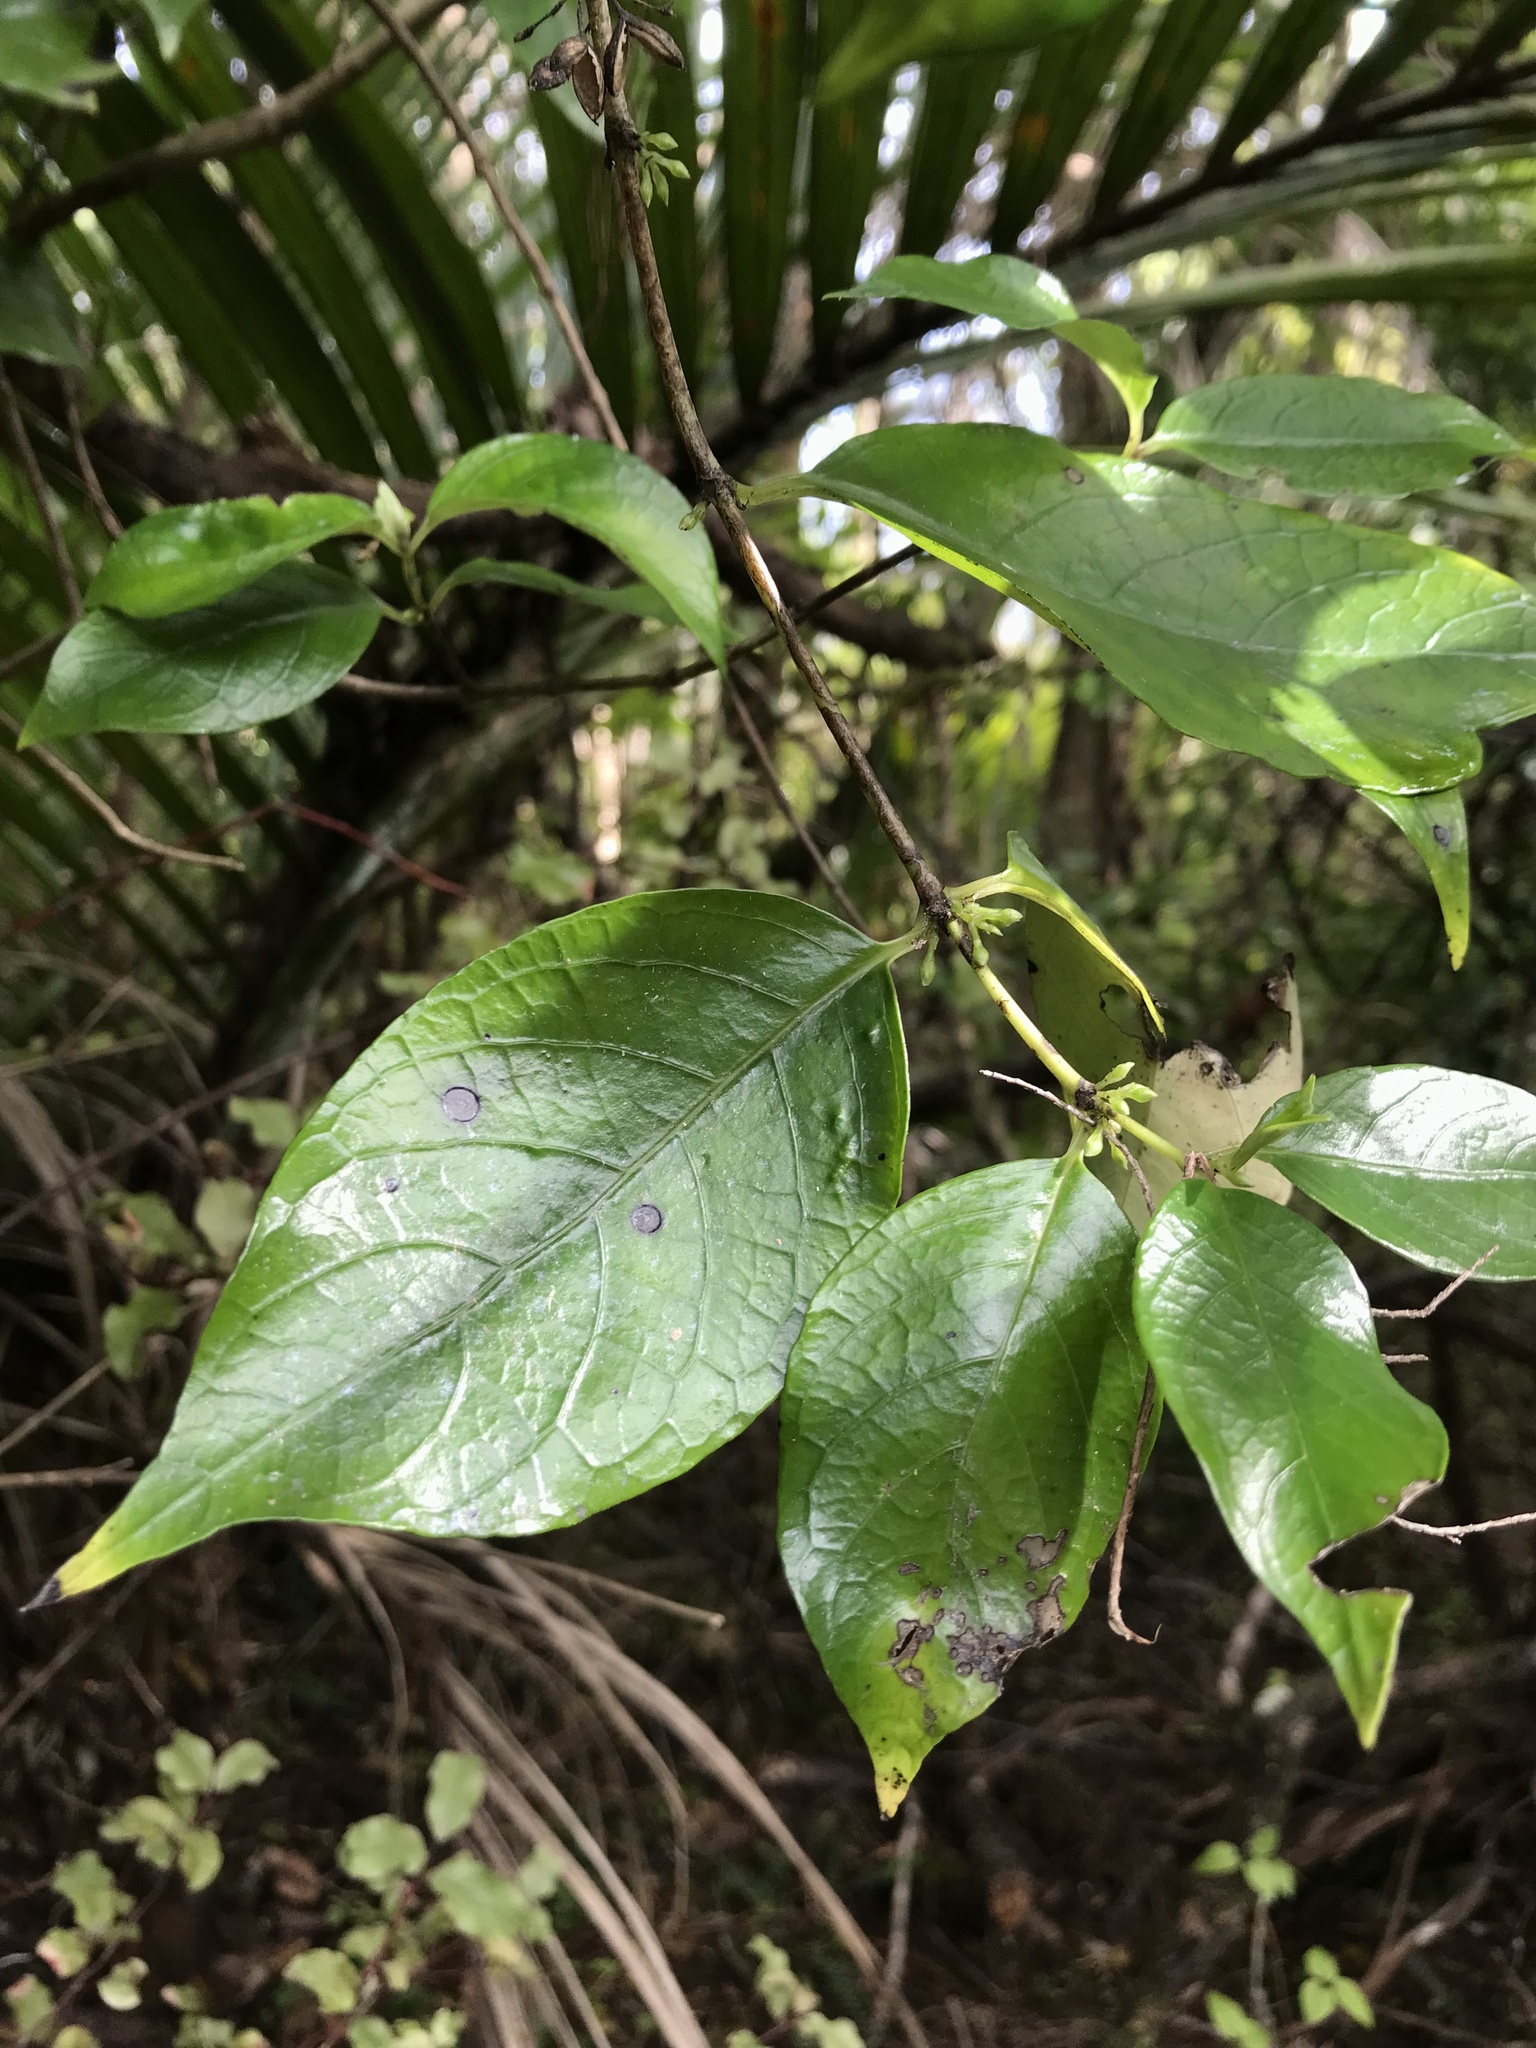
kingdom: Plantae
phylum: Tracheophyta
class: Magnoliopsida
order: Gentianales
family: Loganiaceae
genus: Geniostoma
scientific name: Geniostoma ligustrifolium
